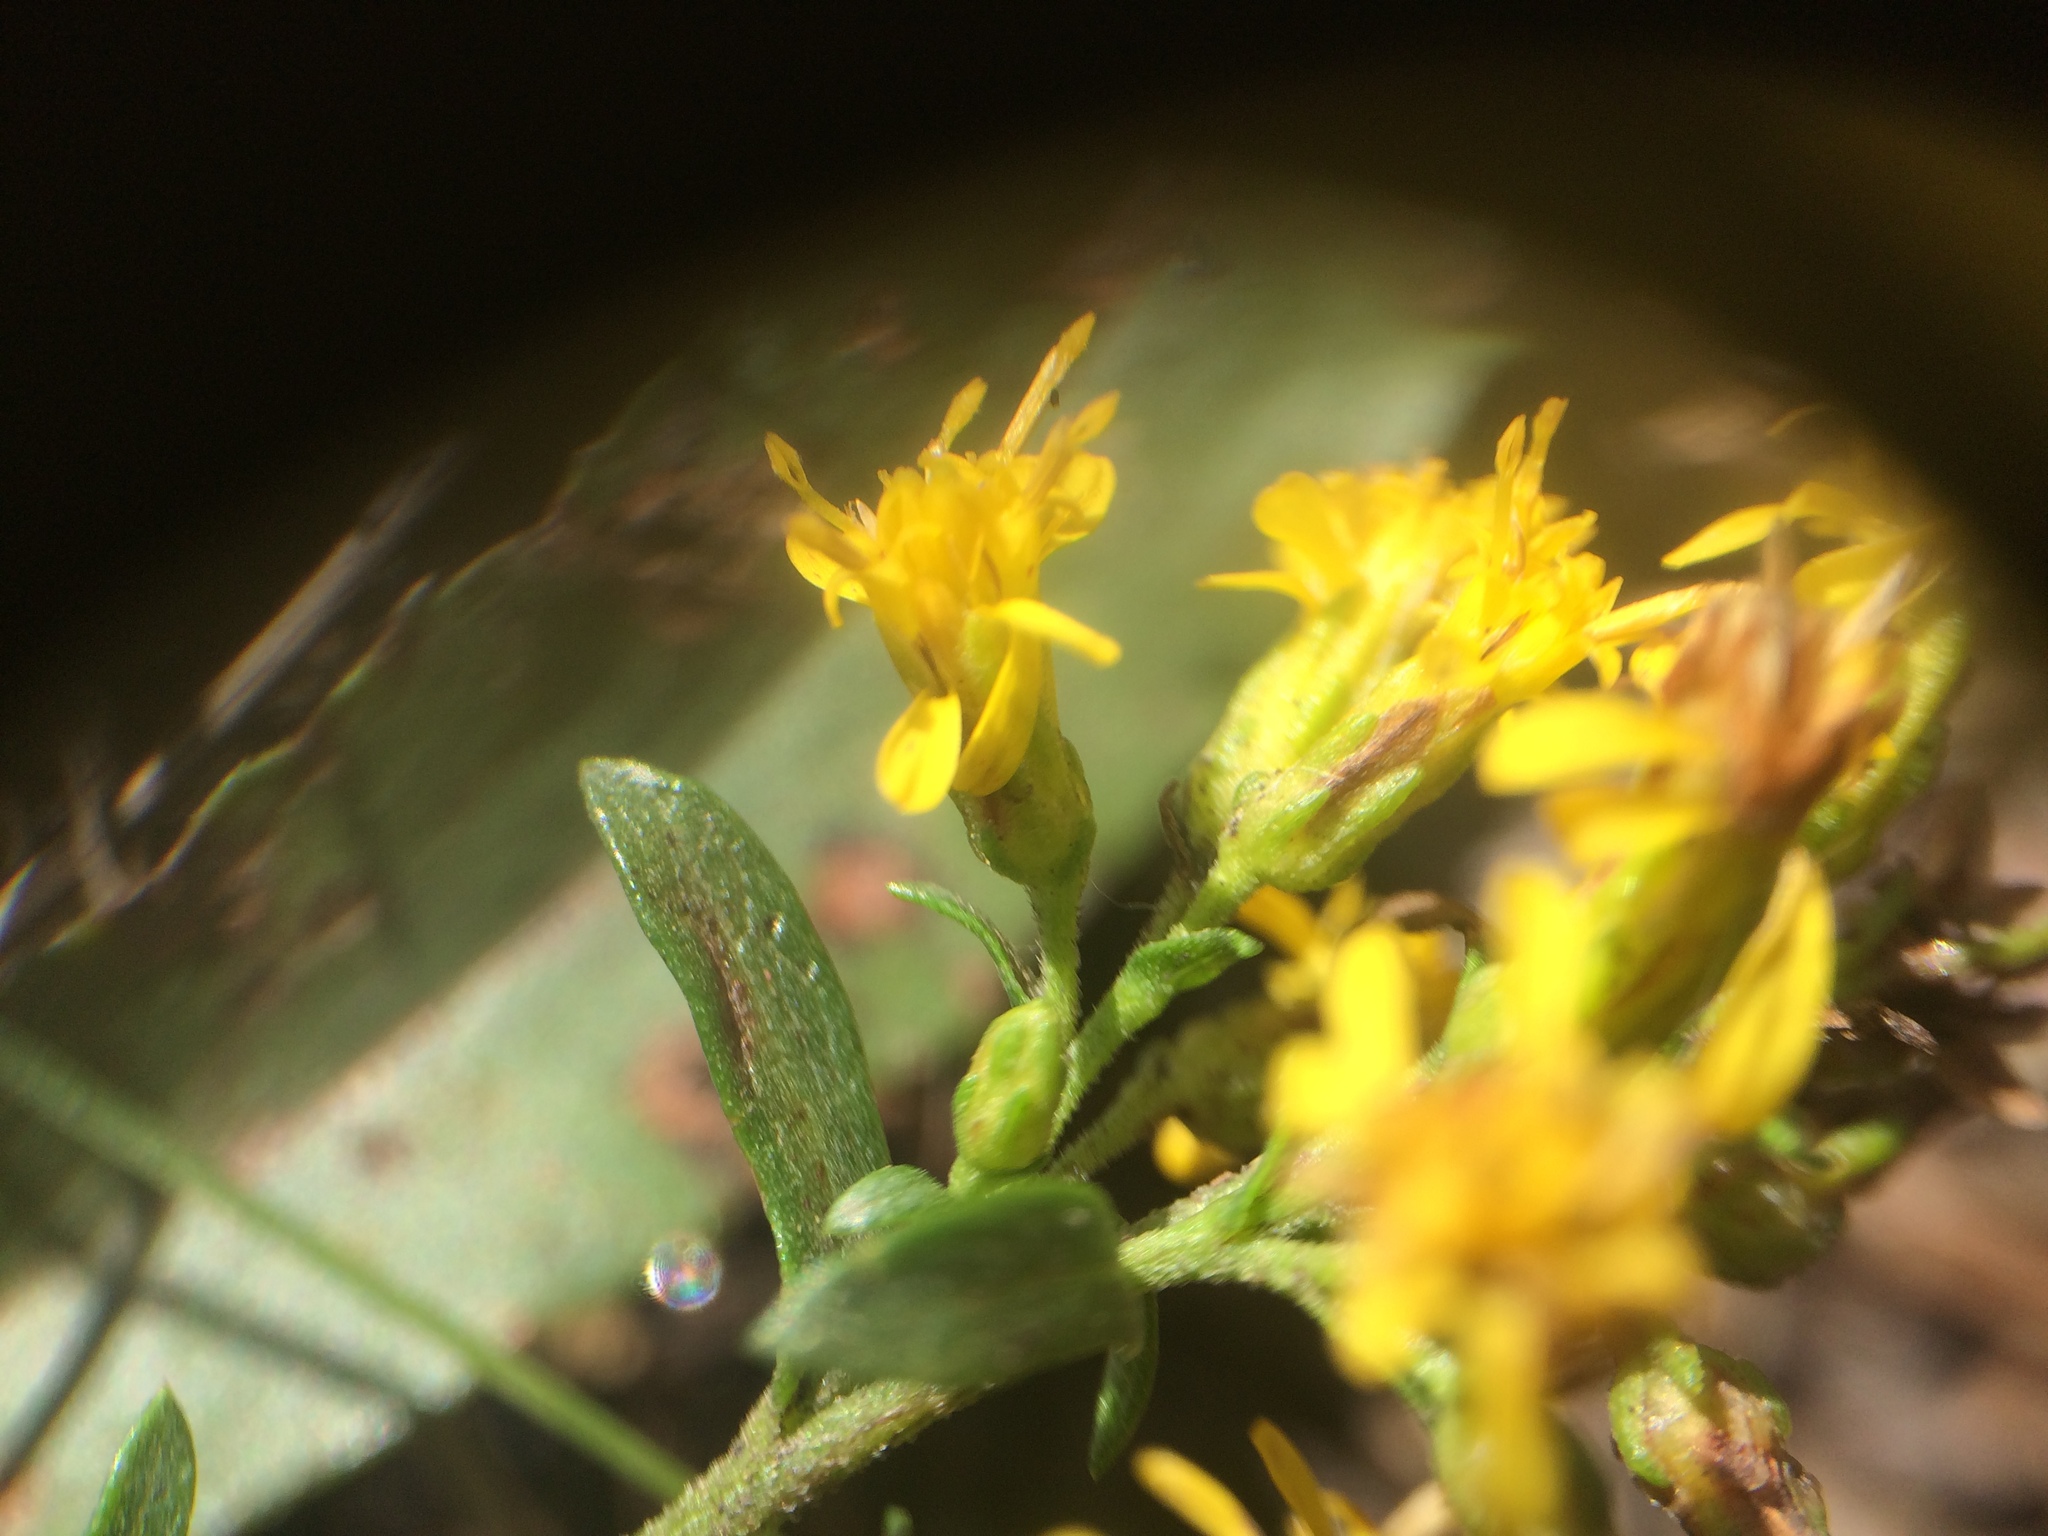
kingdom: Plantae
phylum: Tracheophyta
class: Magnoliopsida
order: Asterales
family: Asteraceae
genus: Solidago
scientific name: Solidago randii
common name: Rand's goldenrod
